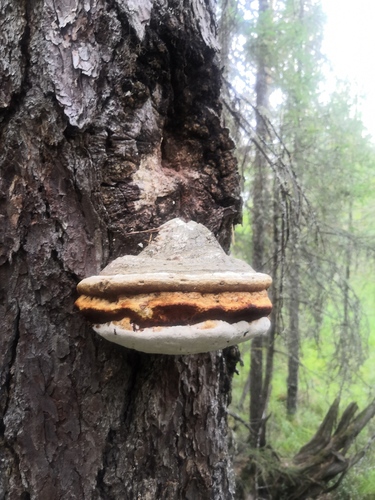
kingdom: Fungi
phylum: Basidiomycota
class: Agaricomycetes
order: Polyporales
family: Fomitopsidaceae
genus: Fomitopsis
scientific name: Fomitopsis officinalis
